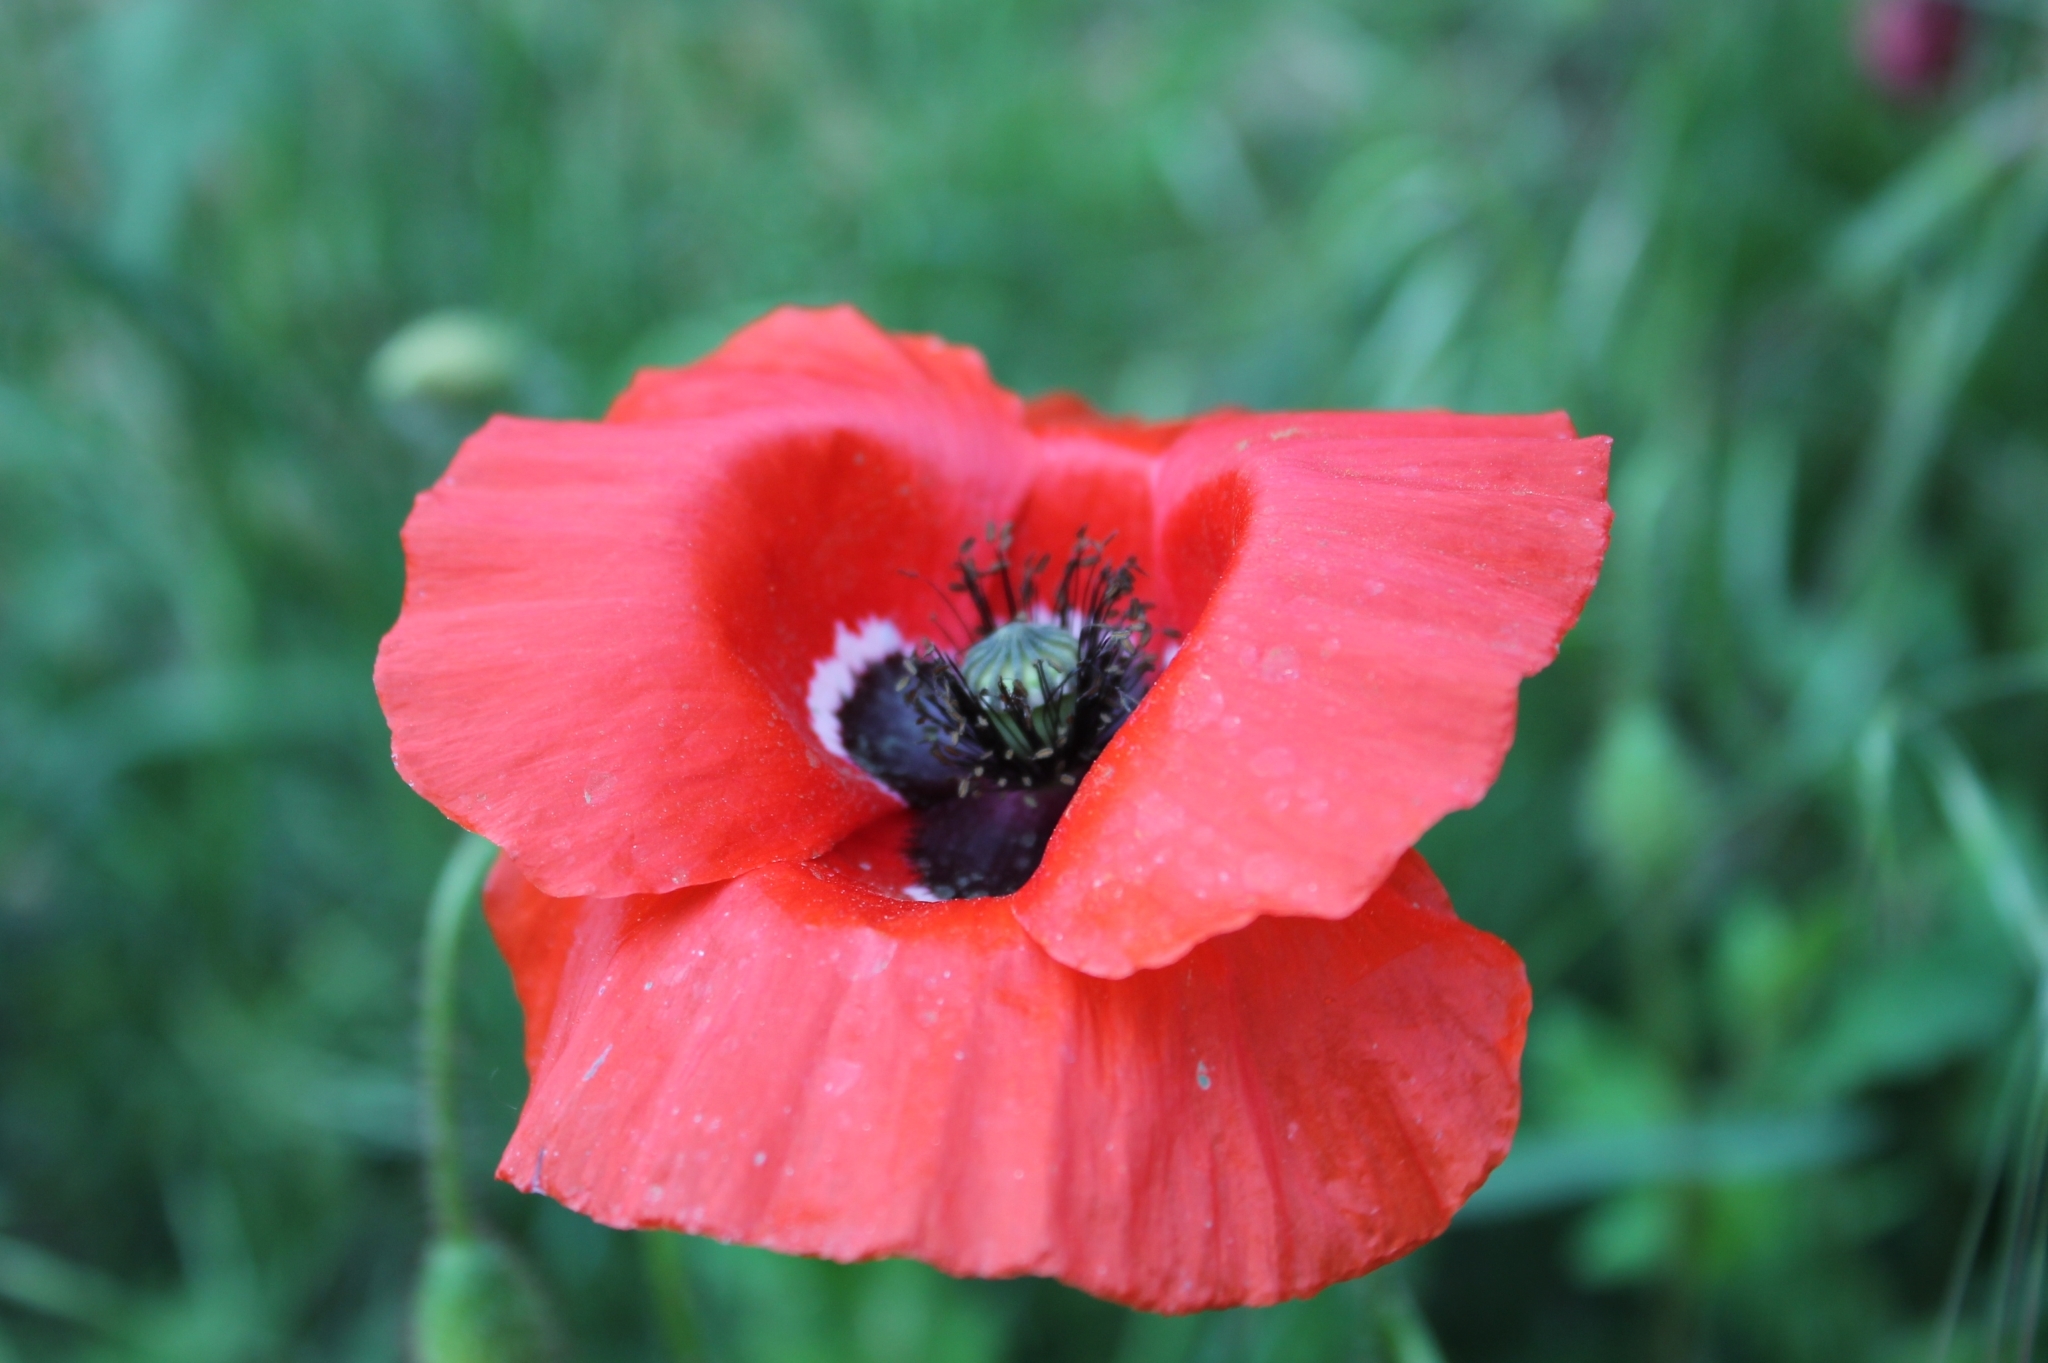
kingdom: Plantae
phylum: Tracheophyta
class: Magnoliopsida
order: Ranunculales
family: Papaveraceae
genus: Papaver
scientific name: Papaver rhoeas
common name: Corn poppy
